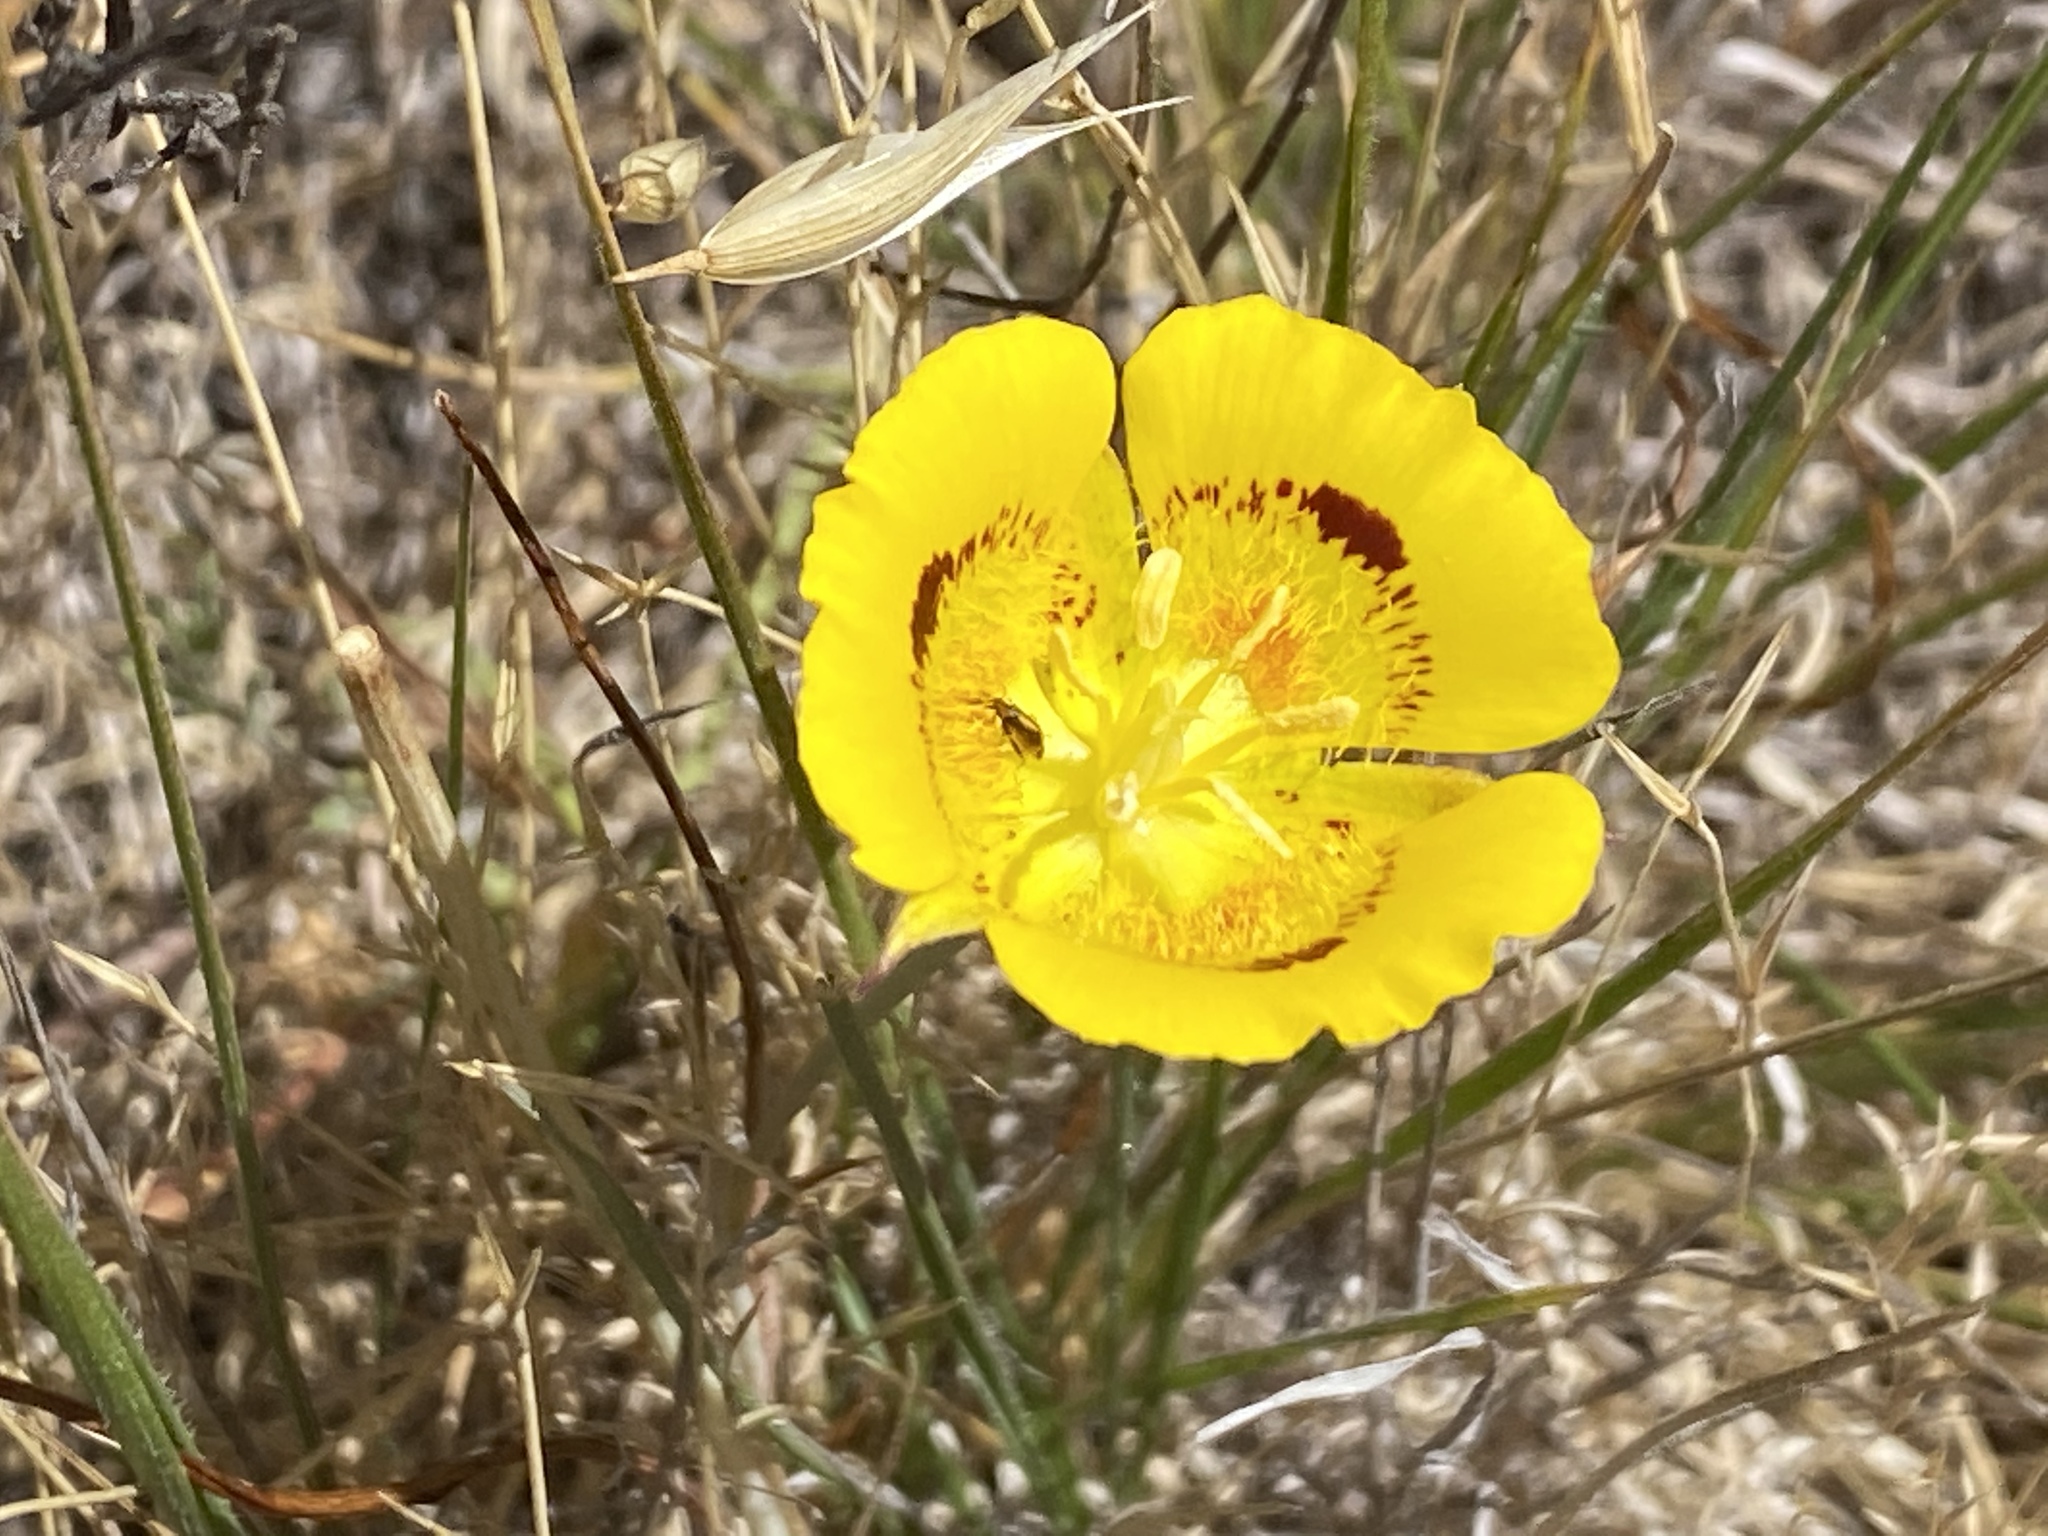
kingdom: Plantae
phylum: Tracheophyta
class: Liliopsida
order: Liliales
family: Liliaceae
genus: Calochortus
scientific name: Calochortus luteus
